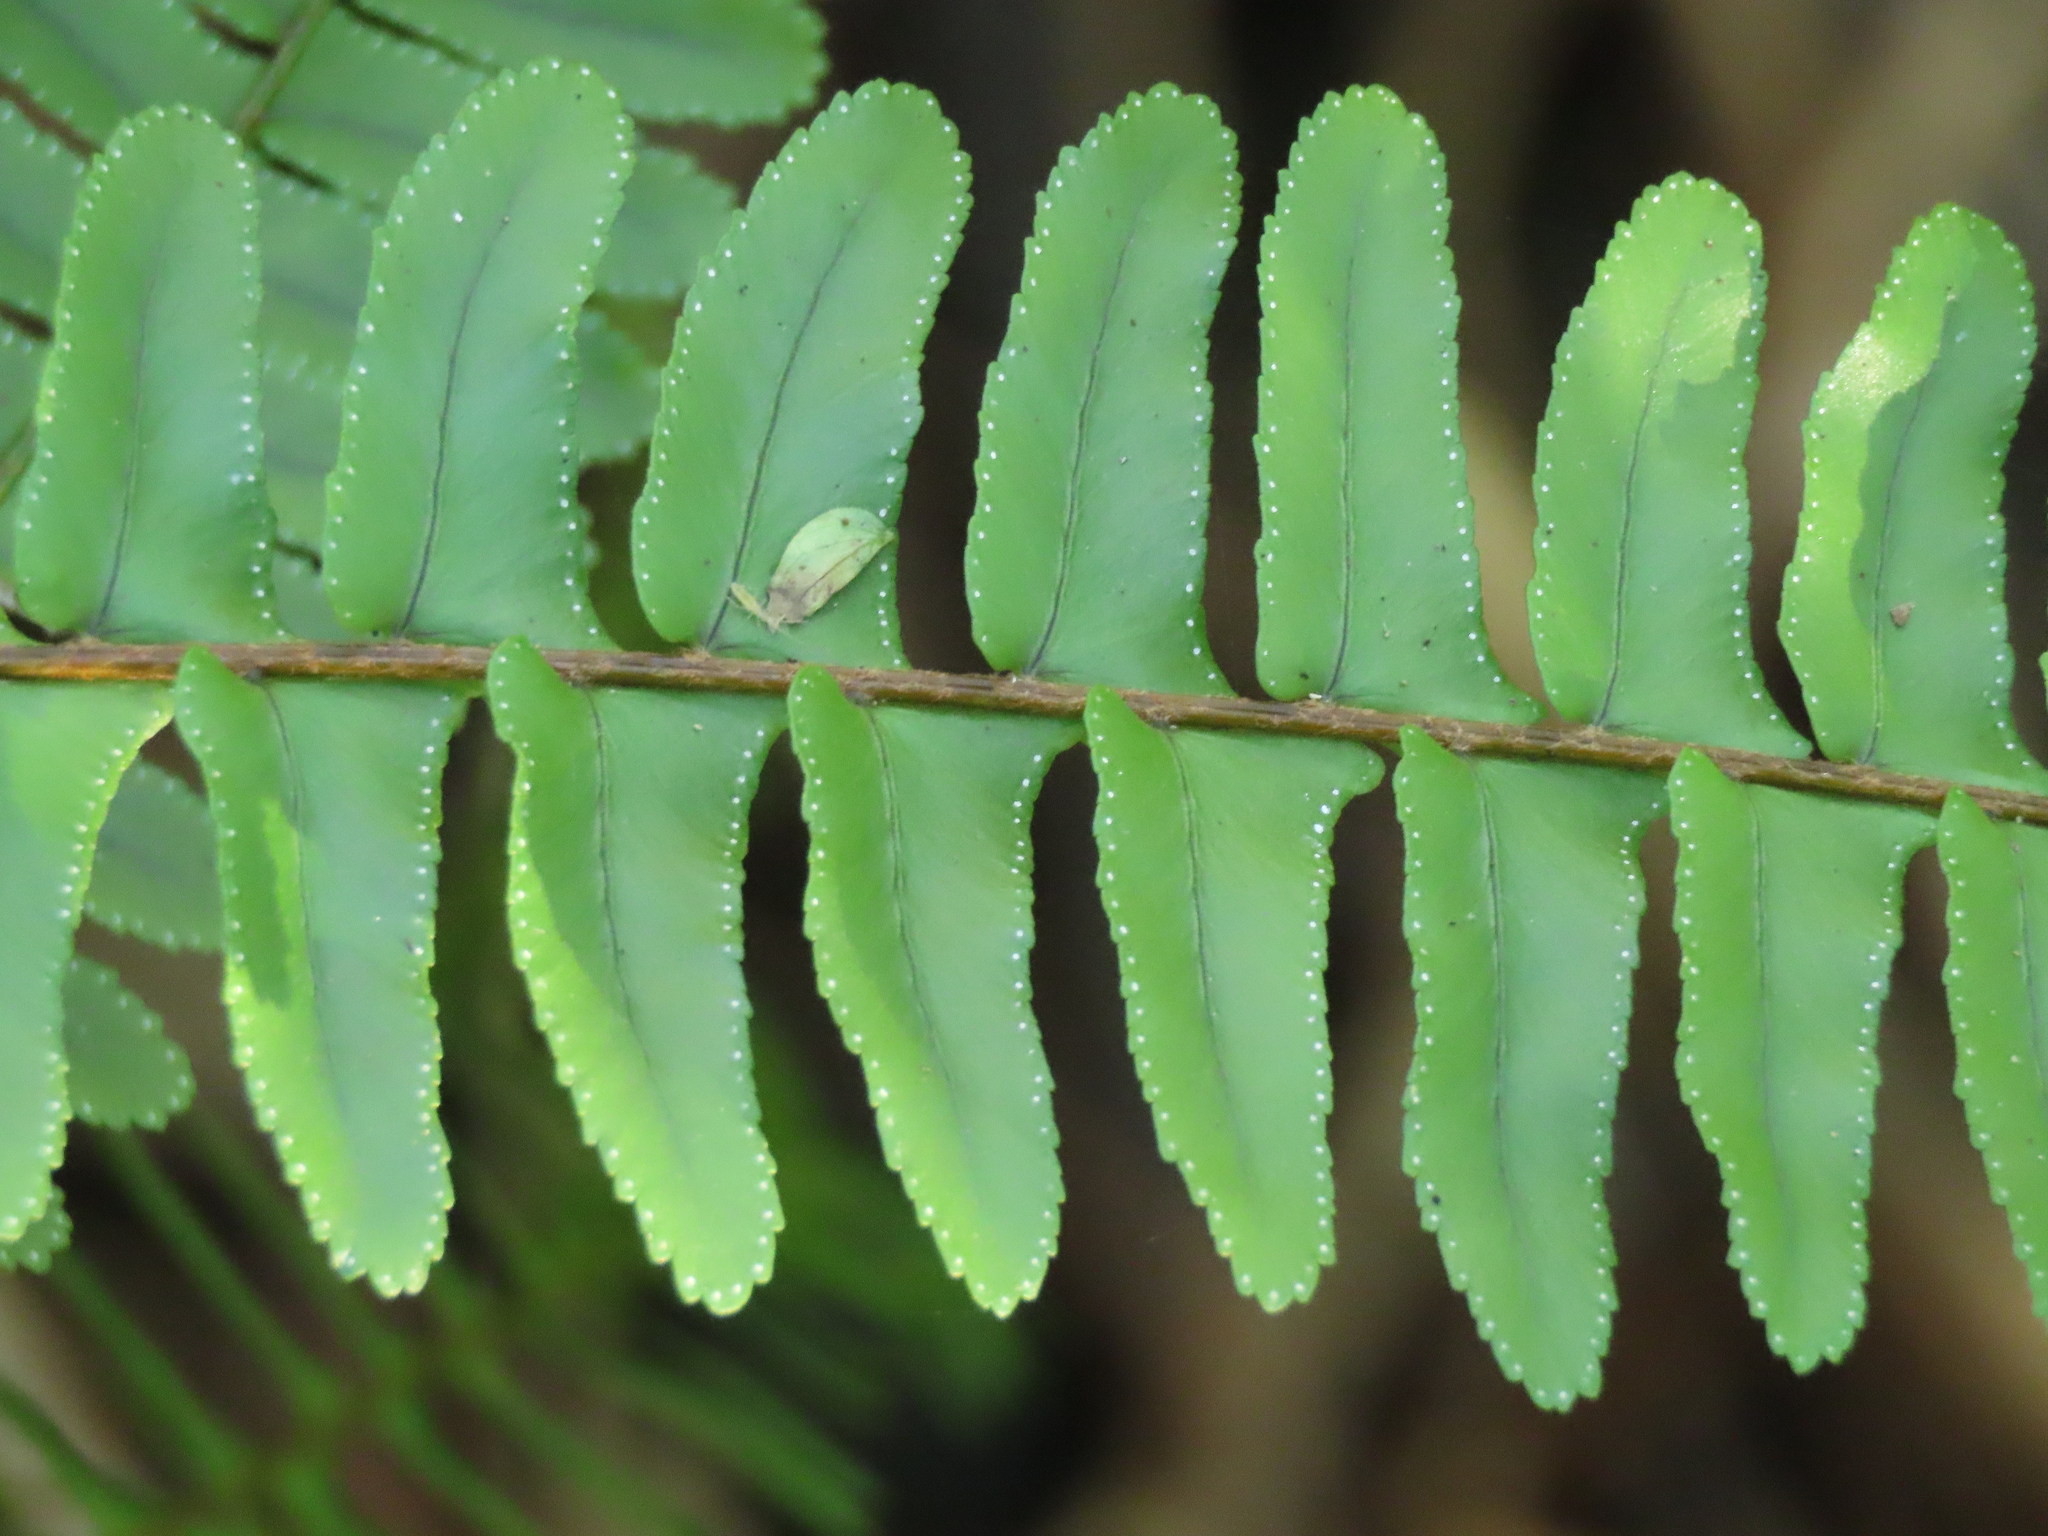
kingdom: Plantae
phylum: Tracheophyta
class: Polypodiopsida
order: Polypodiales
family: Nephrolepidaceae
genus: Nephrolepis
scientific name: Nephrolepis cordifolia
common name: Narrow swordfern
